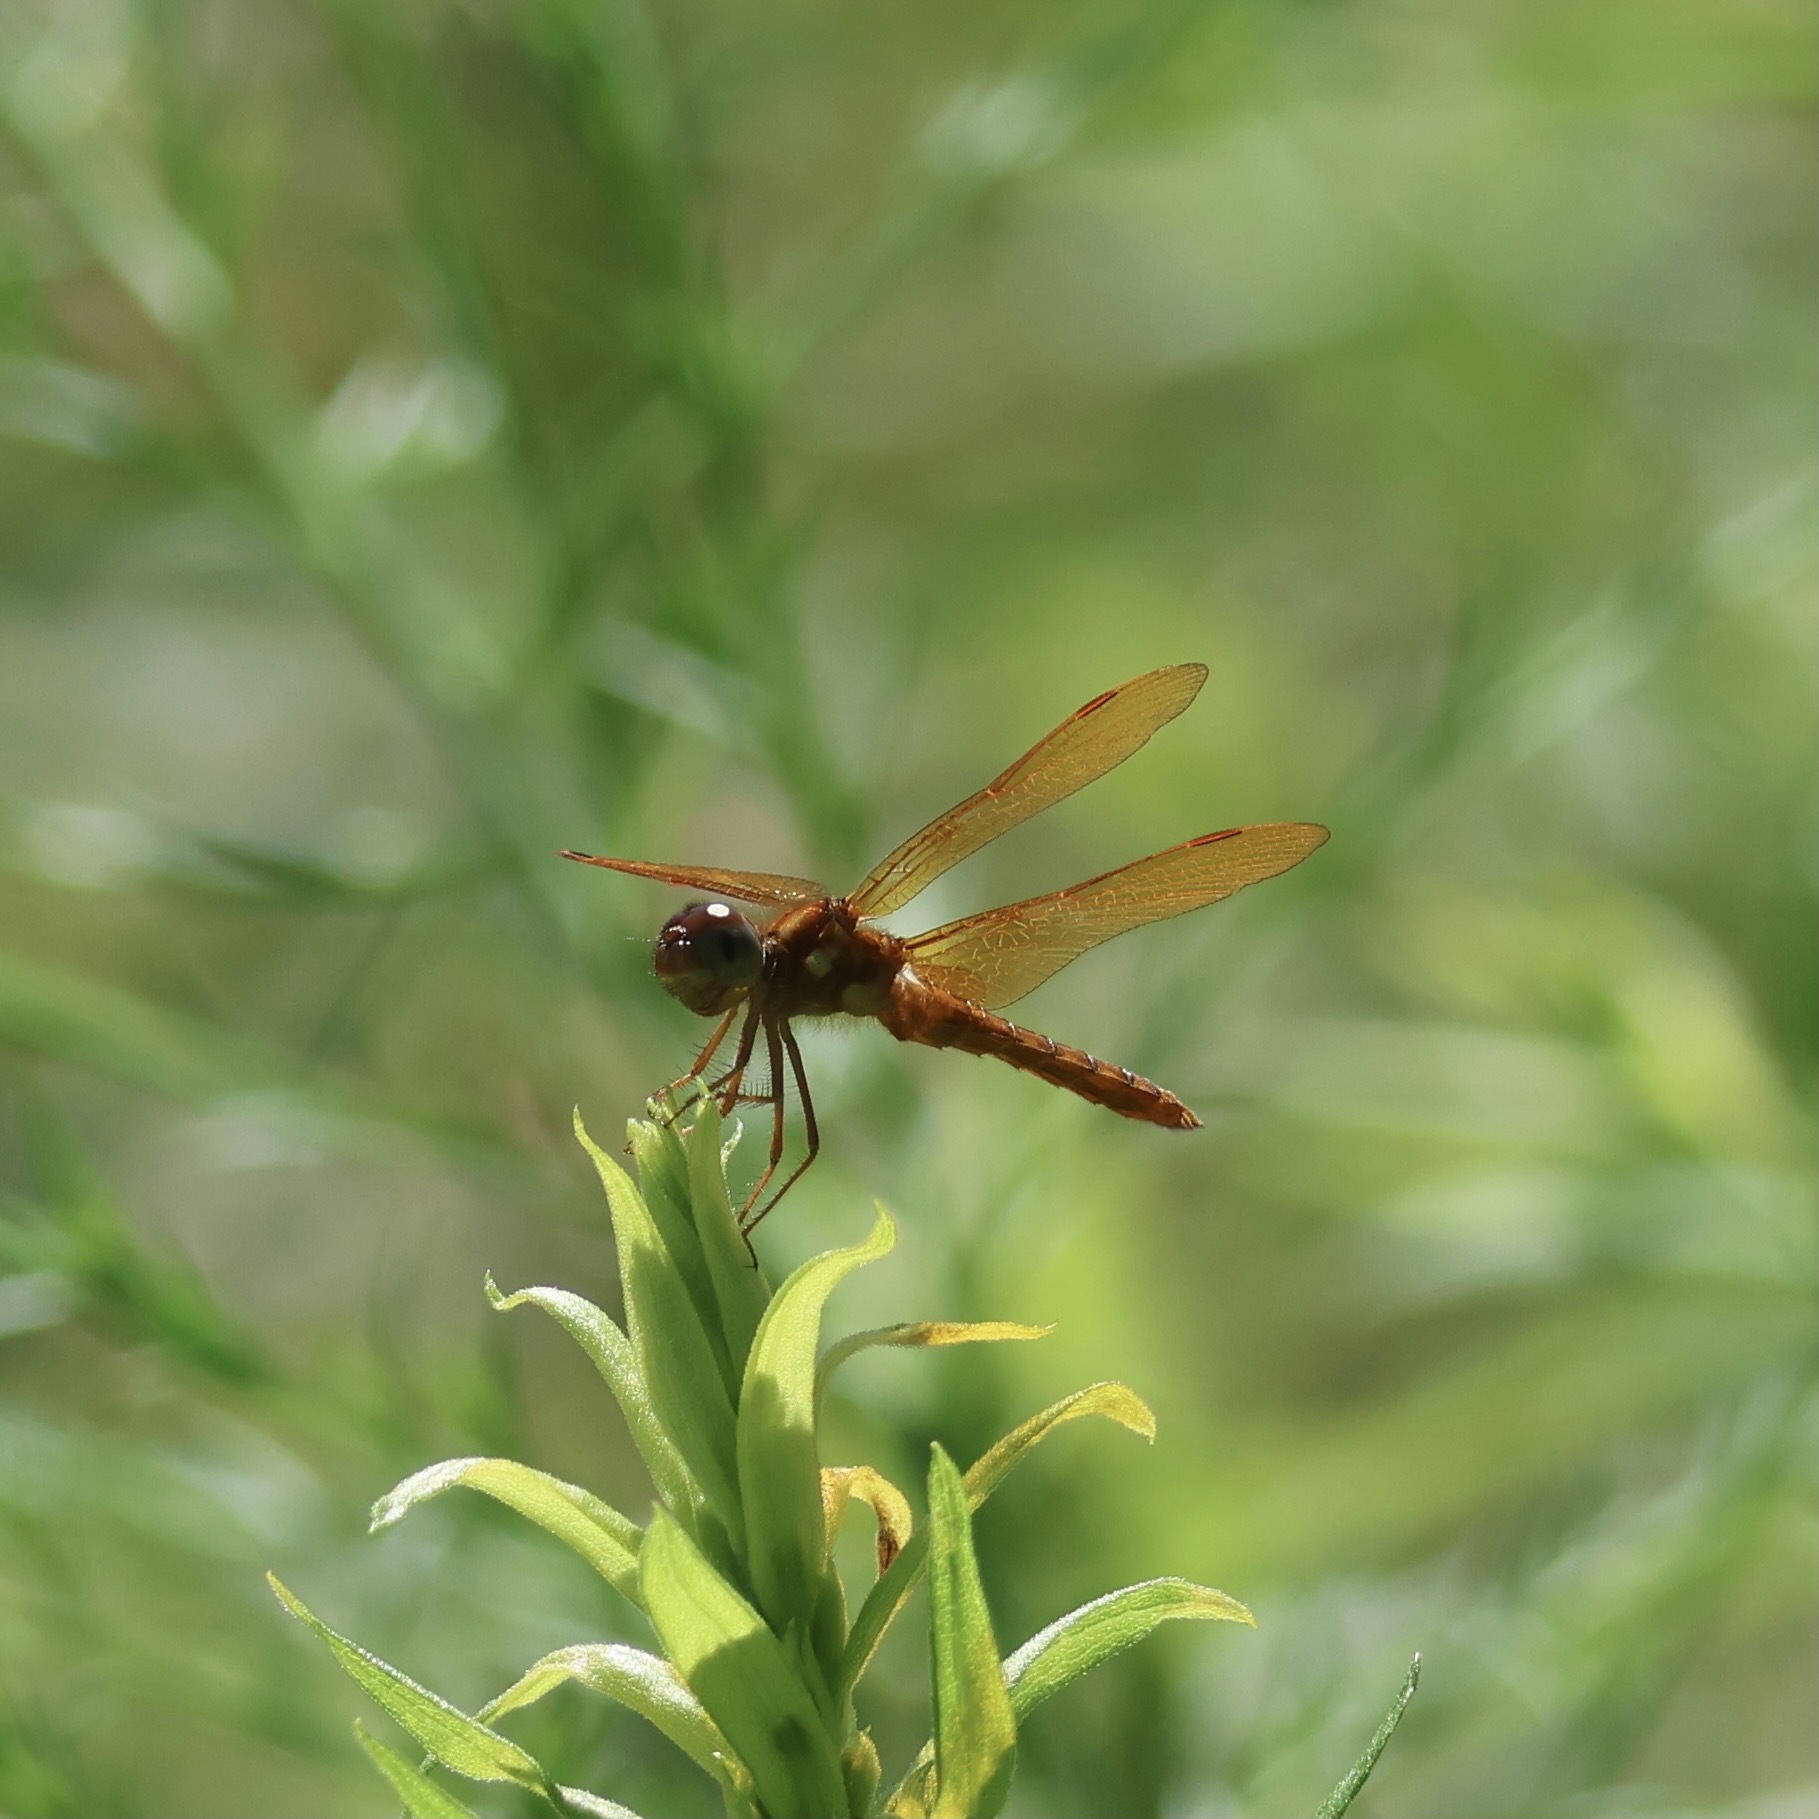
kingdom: Animalia
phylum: Arthropoda
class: Insecta
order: Odonata
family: Libellulidae
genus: Perithemis
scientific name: Perithemis tenera
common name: Eastern amberwing
